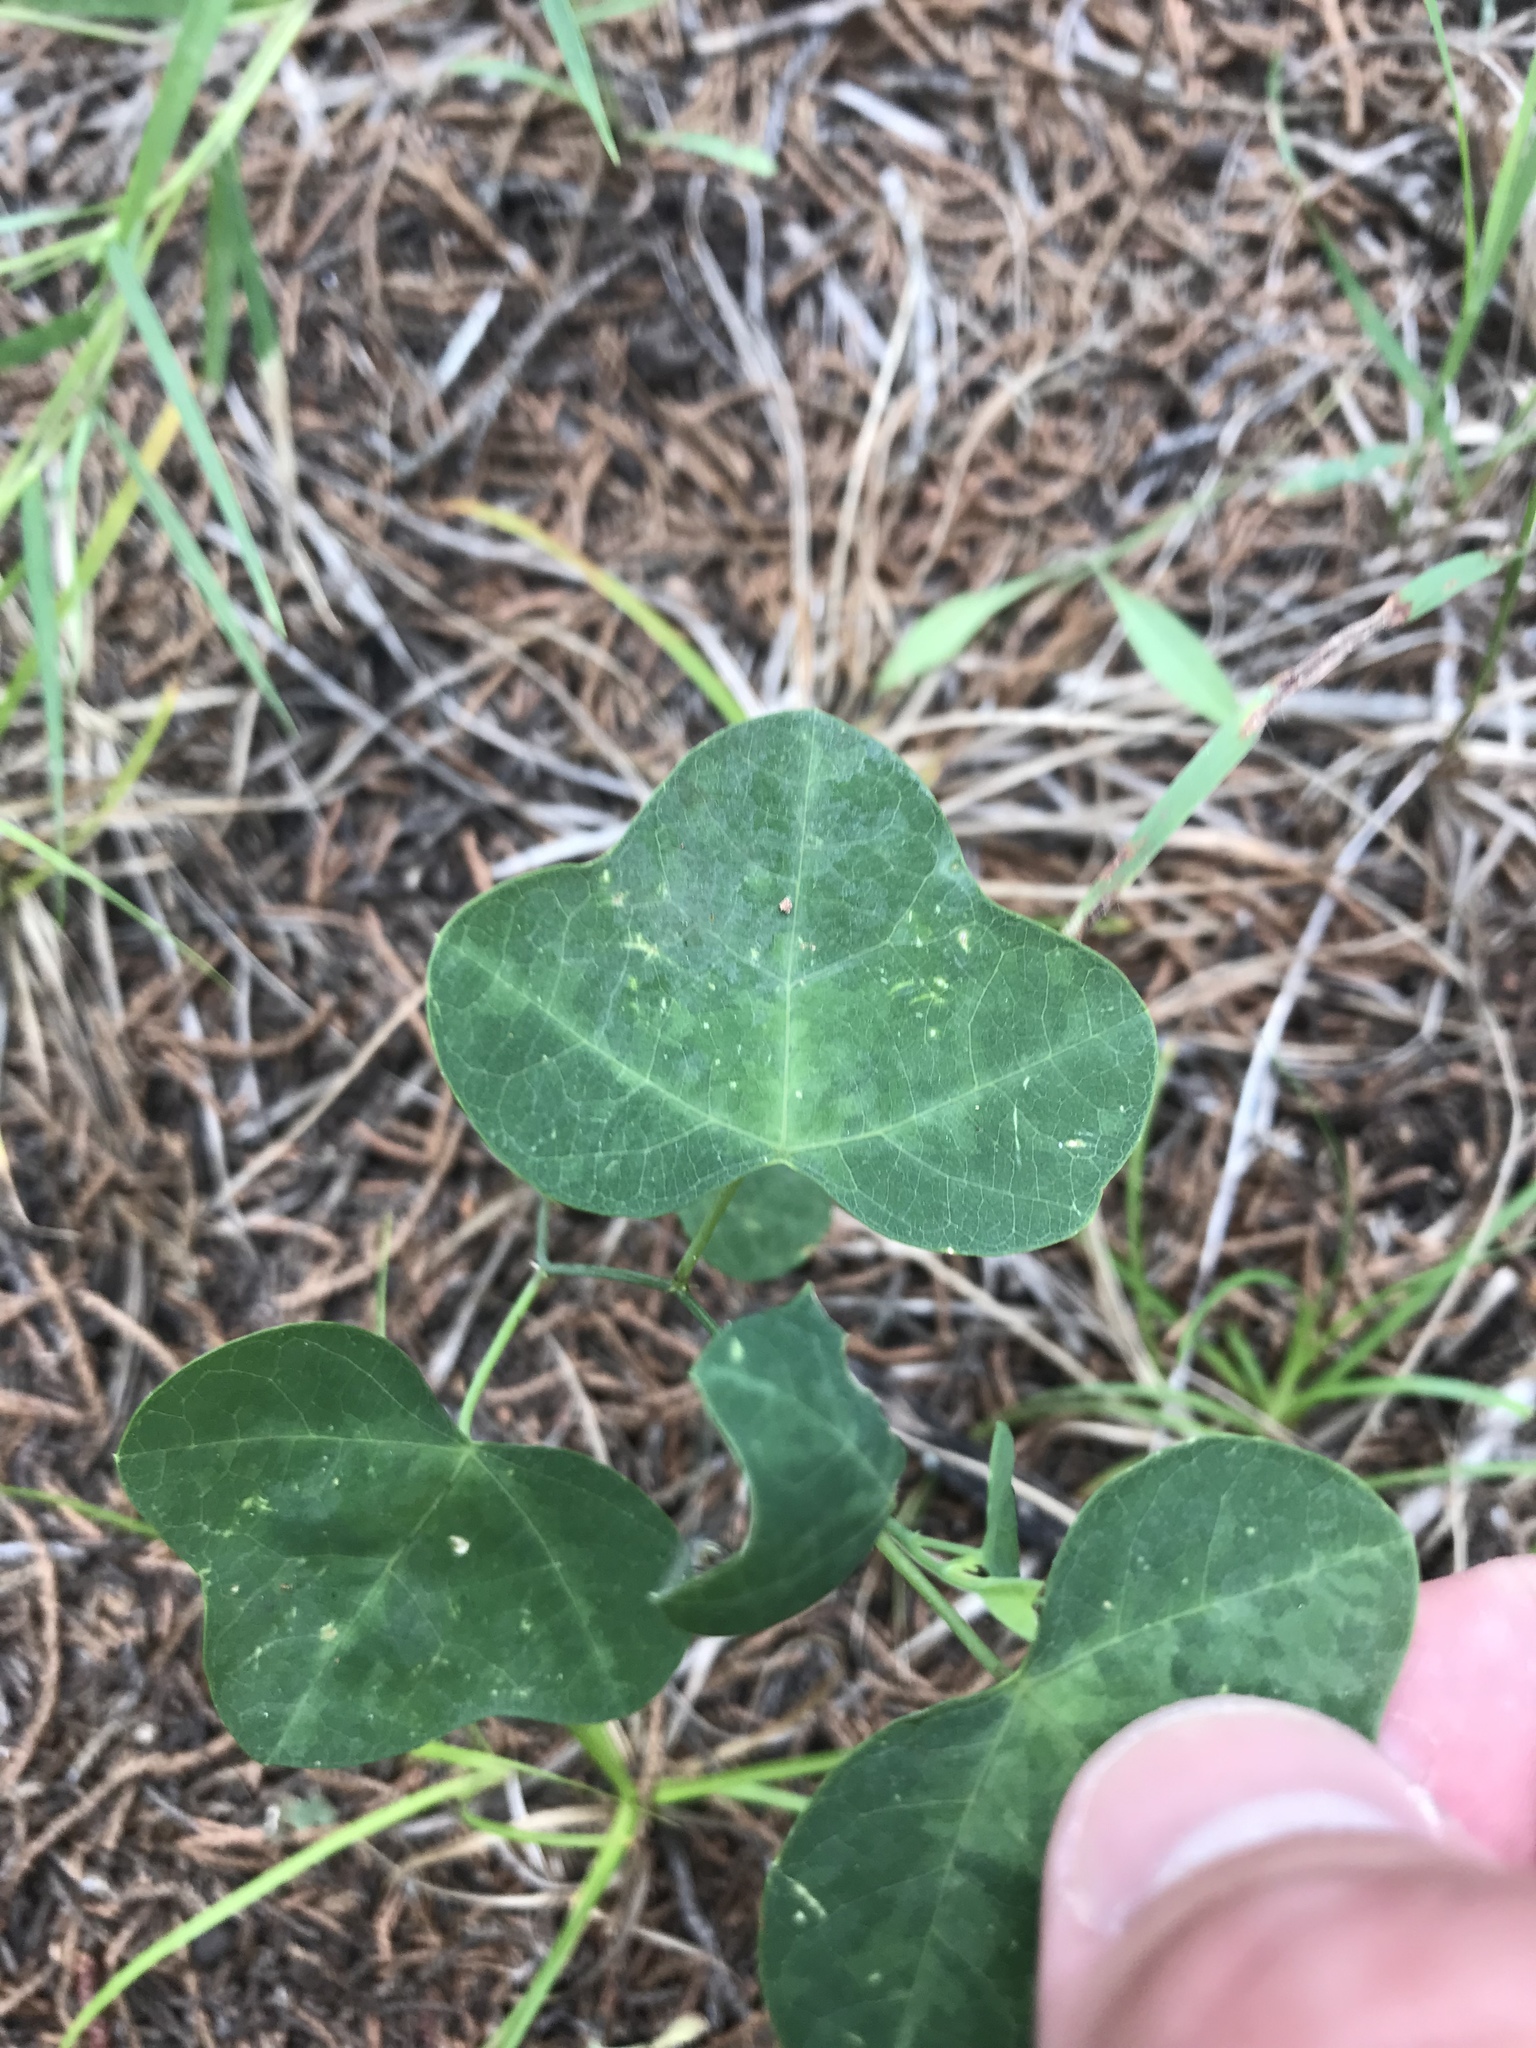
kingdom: Plantae
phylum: Tracheophyta
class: Magnoliopsida
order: Malpighiales
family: Passifloraceae
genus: Passiflora
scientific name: Passiflora lutea
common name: Yellow passionflower
